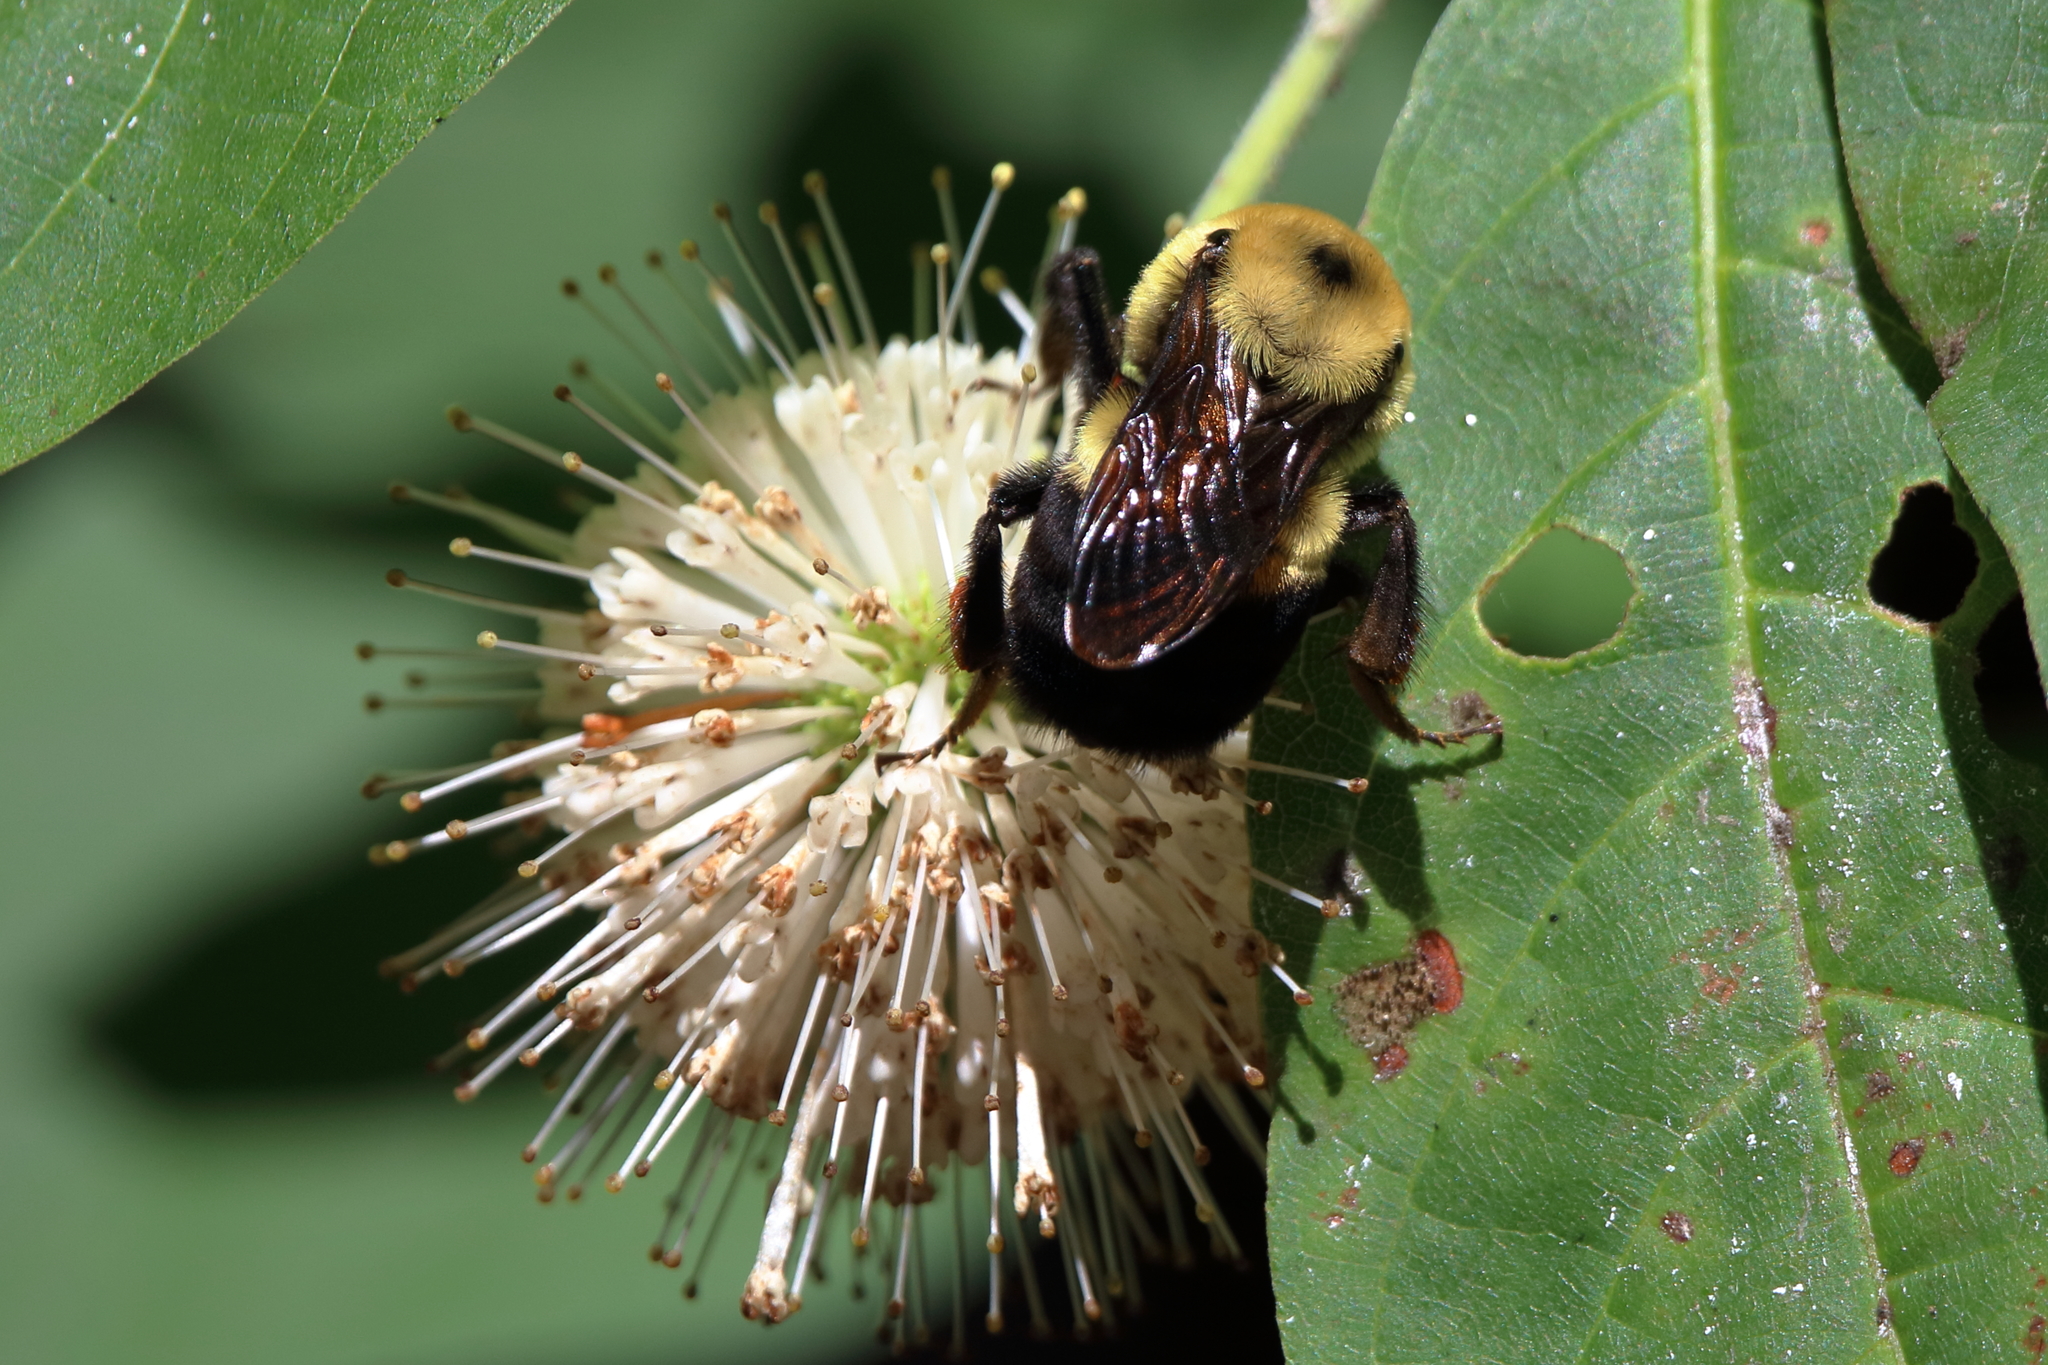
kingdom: Animalia
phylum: Arthropoda
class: Insecta
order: Hymenoptera
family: Apidae
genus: Bombus
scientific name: Bombus griseocollis
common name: Brown-belted bumble bee
